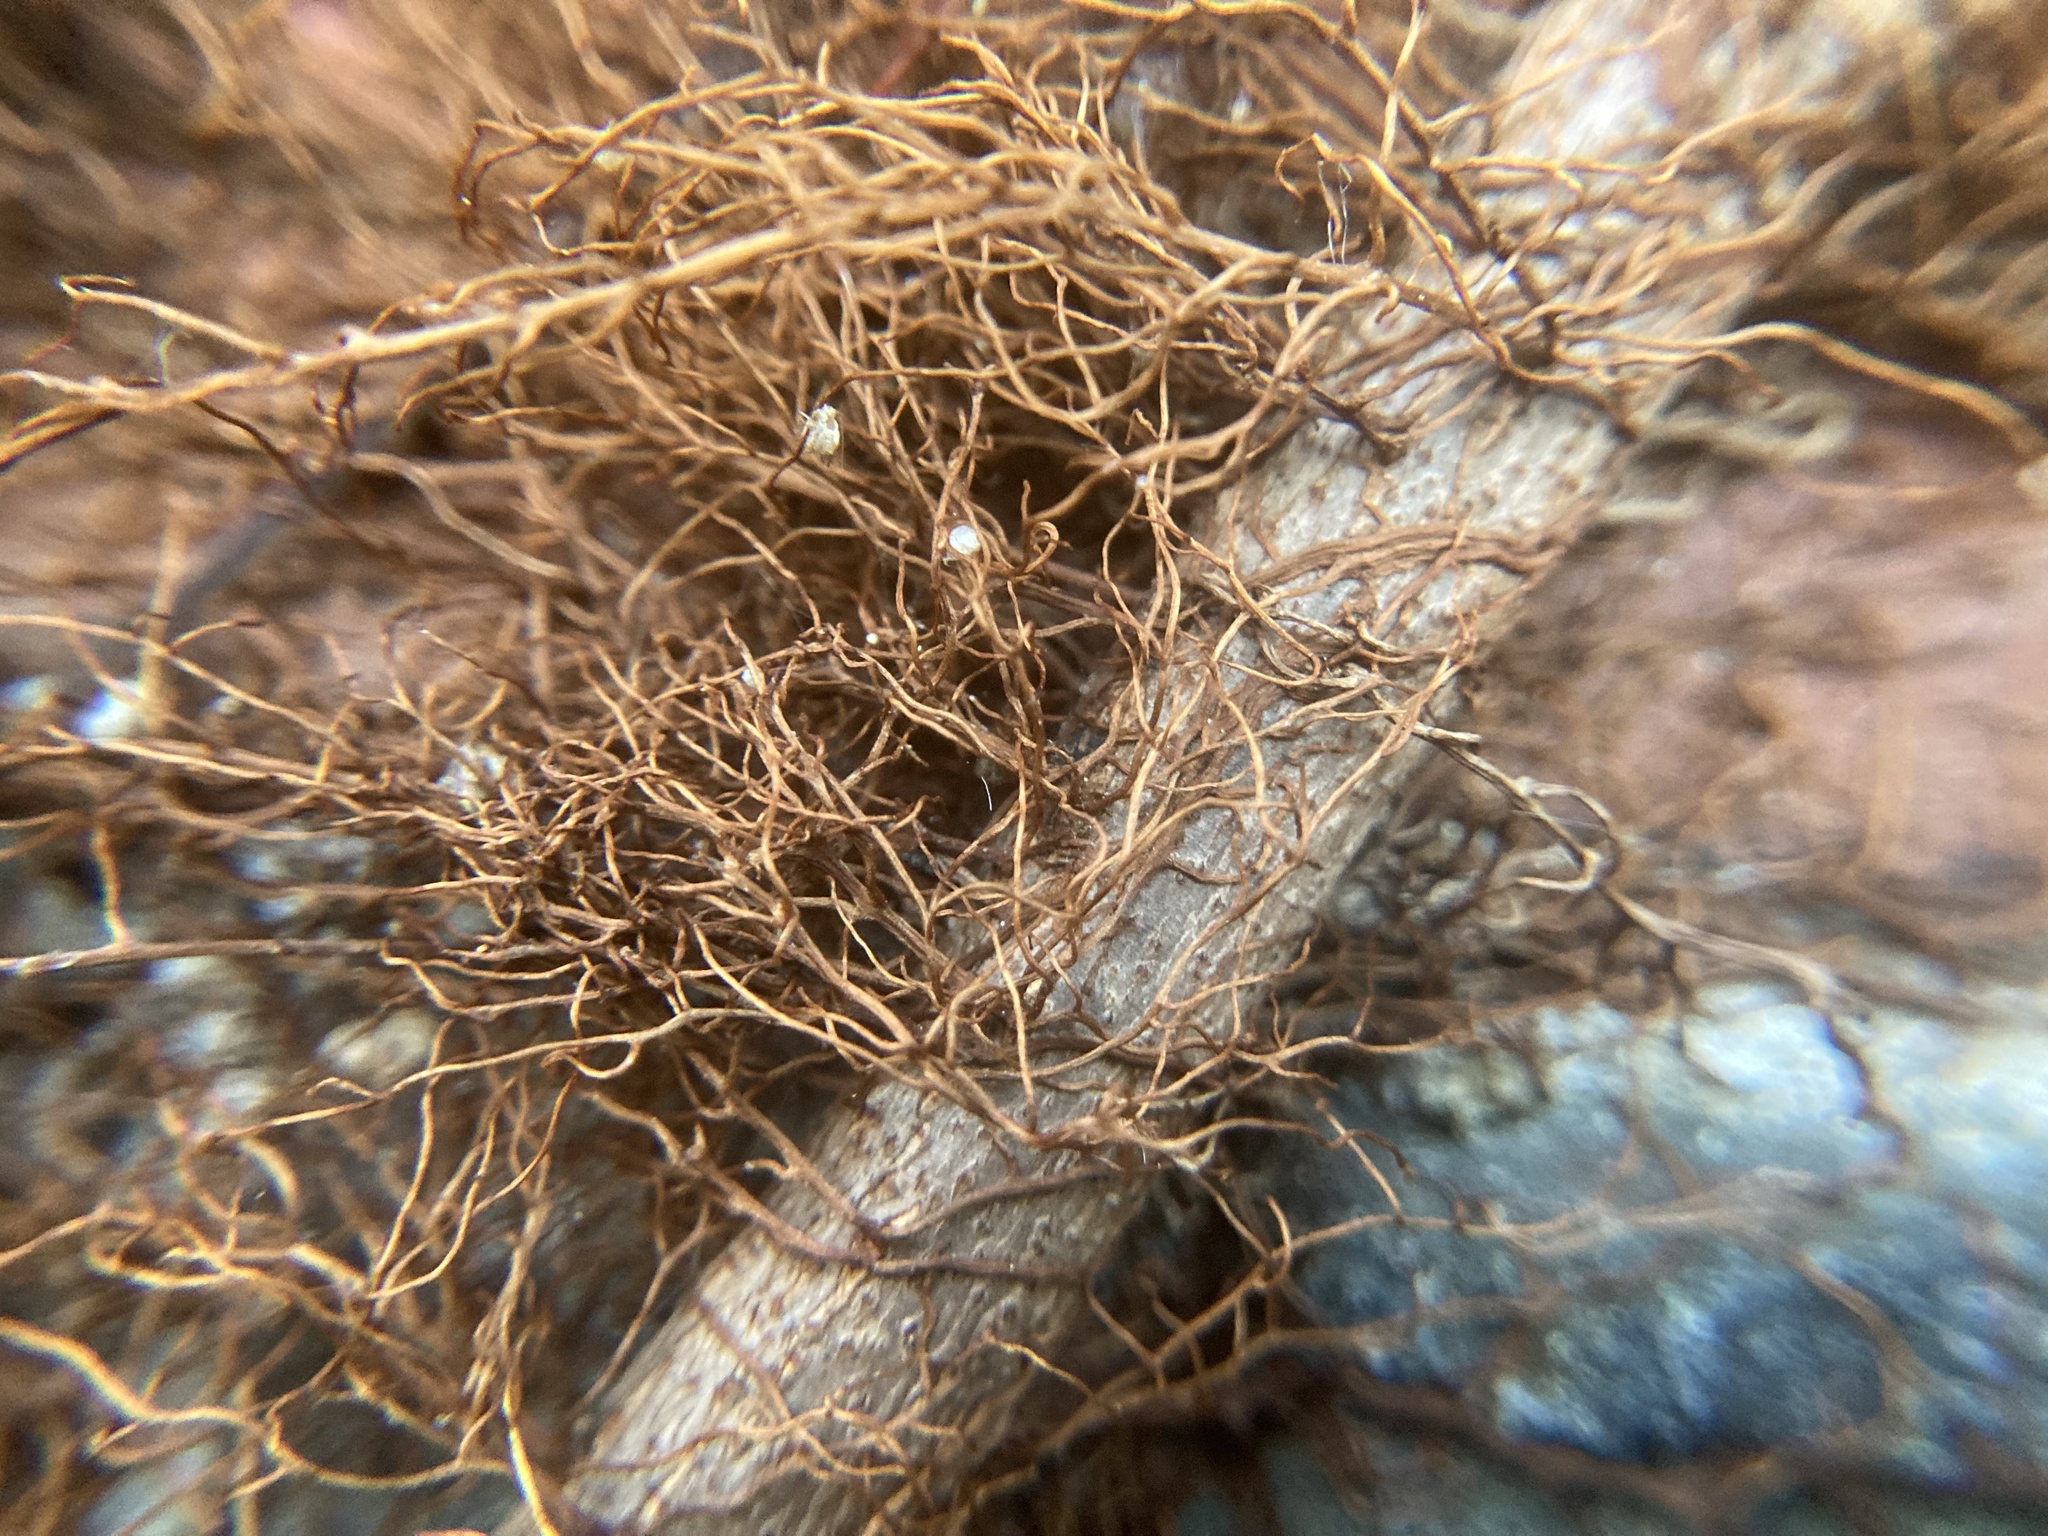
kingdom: Plantae
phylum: Tracheophyta
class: Magnoliopsida
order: Sapindales
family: Anacardiaceae
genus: Toxicodendron
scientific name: Toxicodendron radicans
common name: Poison ivy
